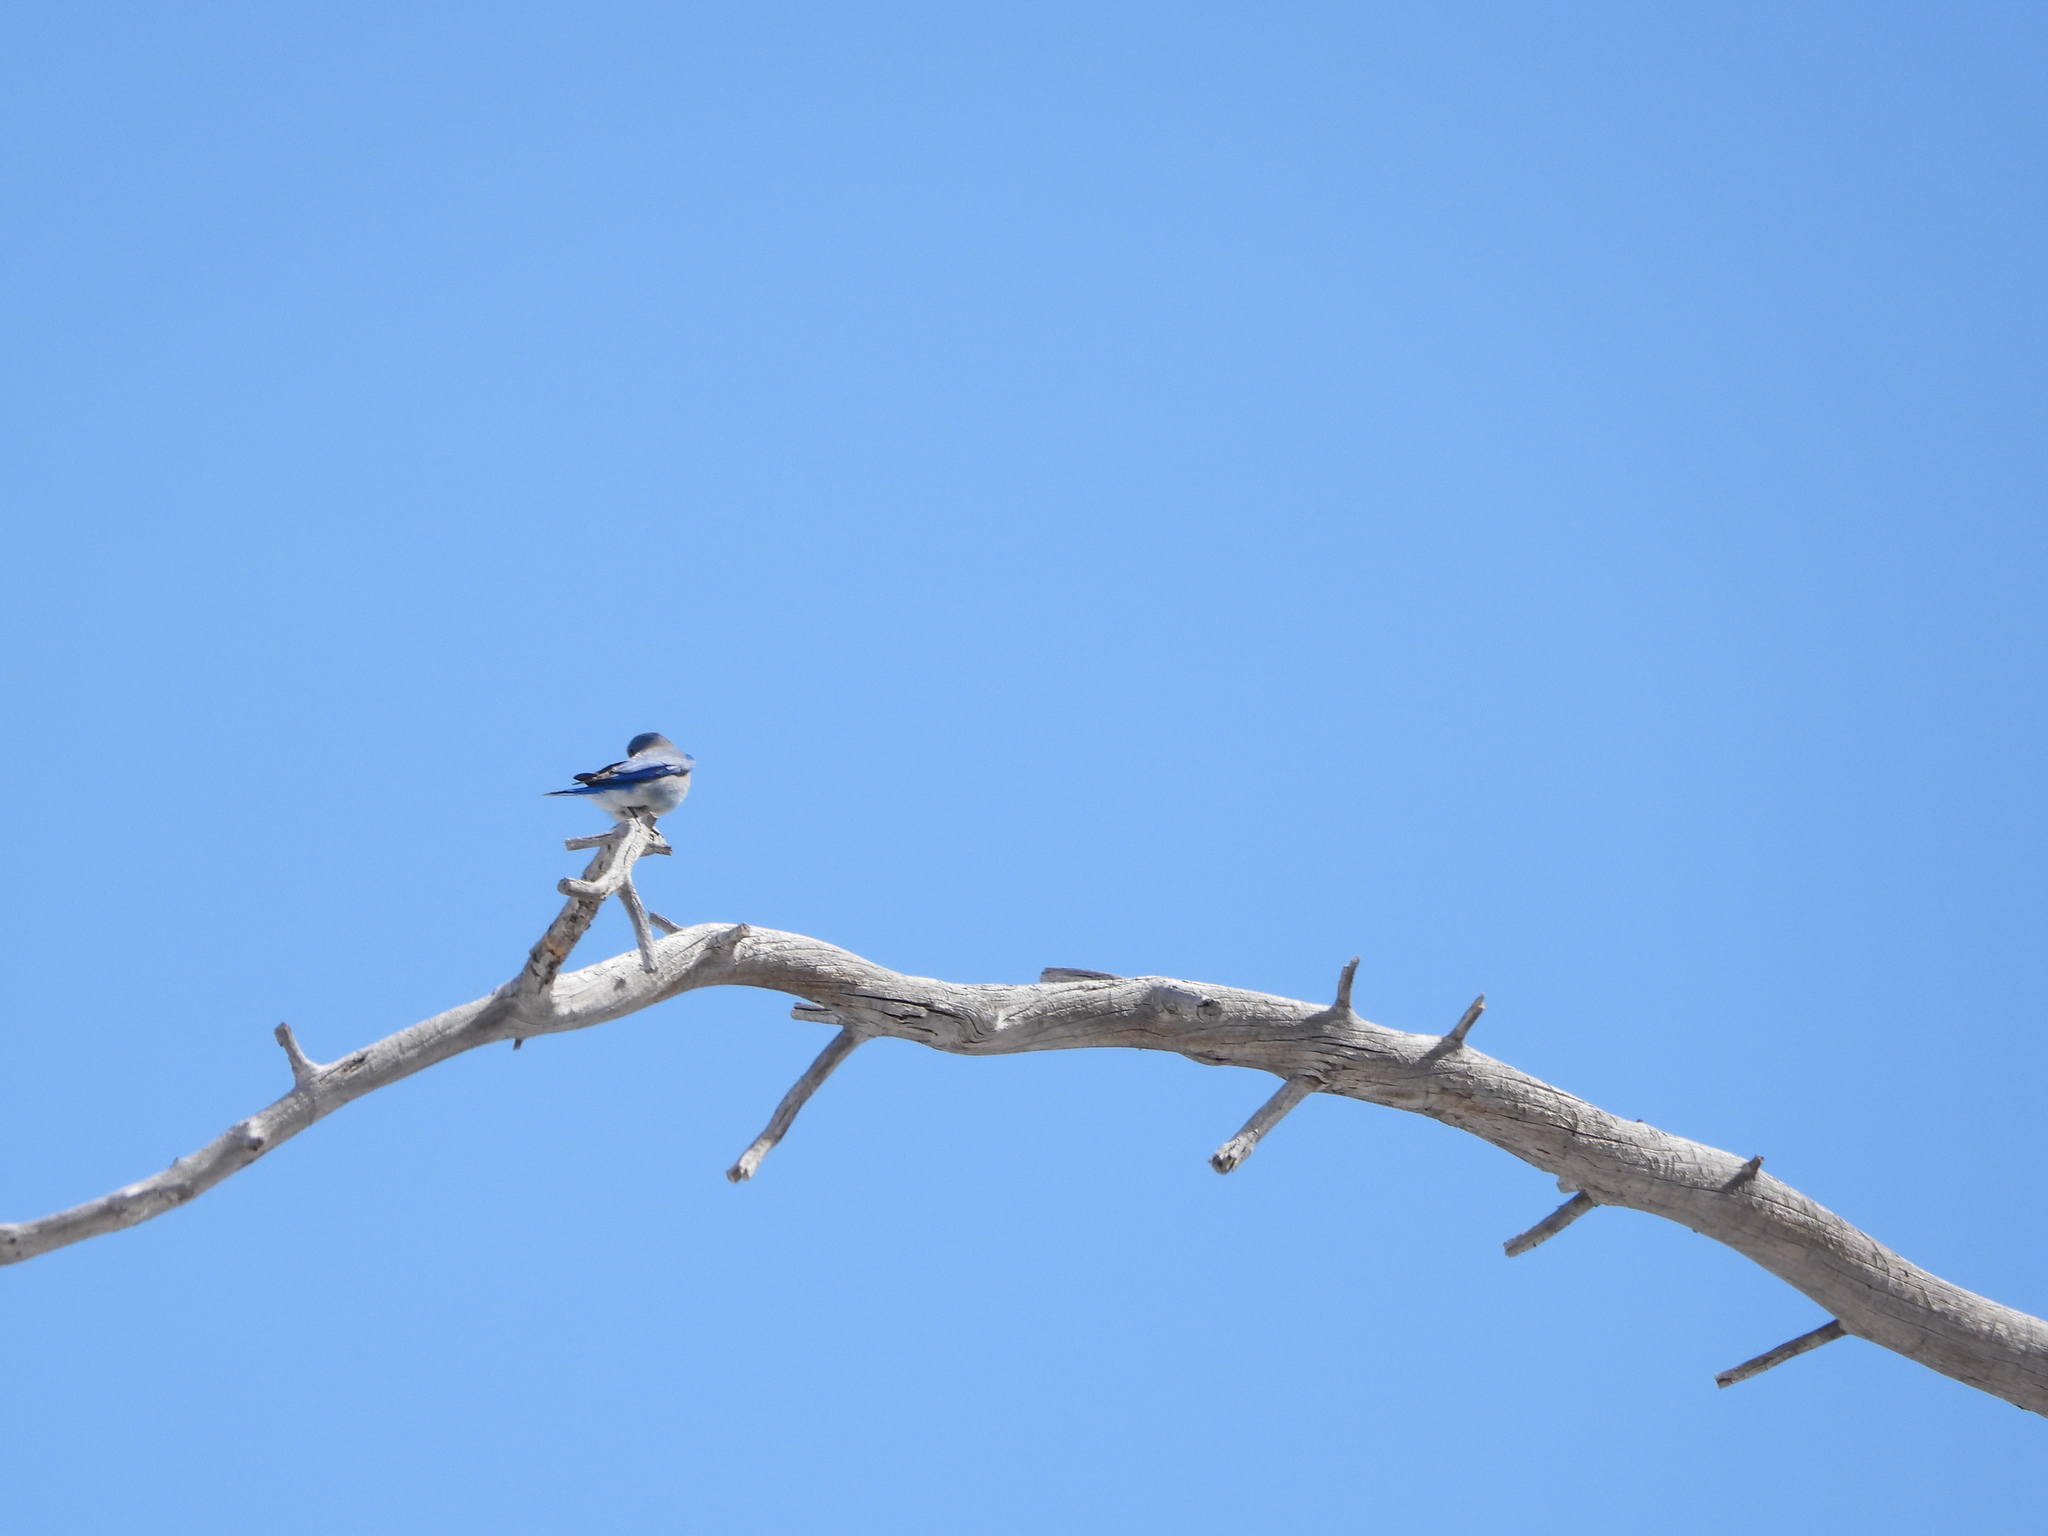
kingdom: Animalia
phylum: Chordata
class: Aves
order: Passeriformes
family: Turdidae
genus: Sialia
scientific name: Sialia currucoides
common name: Mountain bluebird
